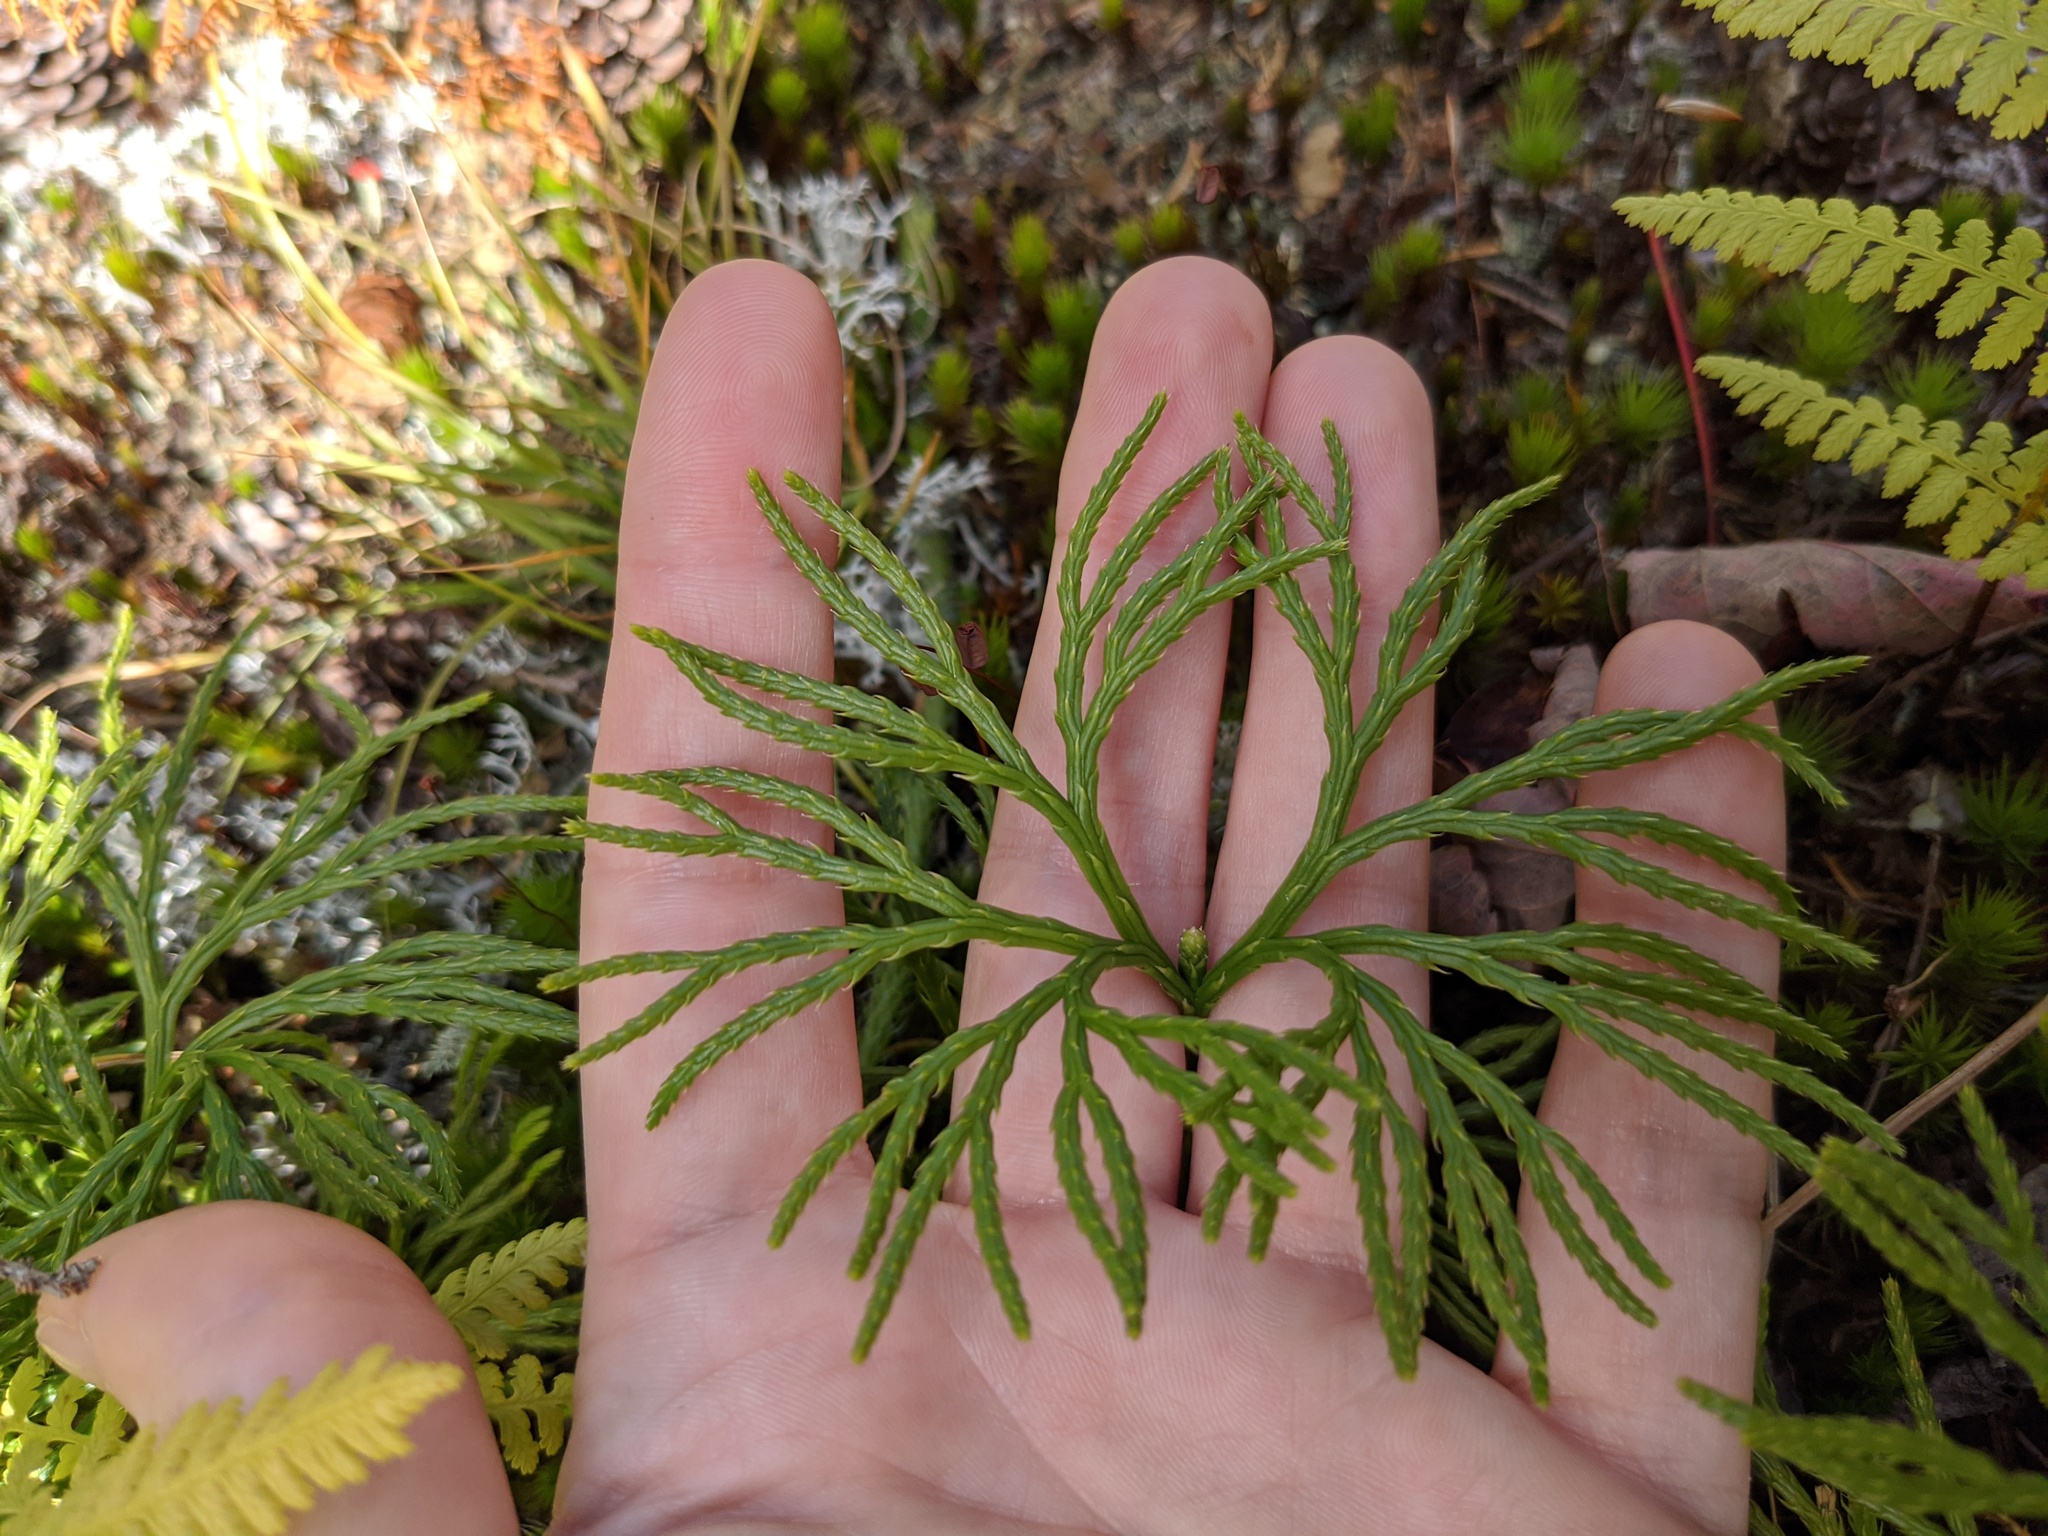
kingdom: Plantae
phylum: Tracheophyta
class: Lycopodiopsida
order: Lycopodiales
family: Lycopodiaceae
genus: Diphasiastrum
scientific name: Diphasiastrum digitatum
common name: Southern running-pine
